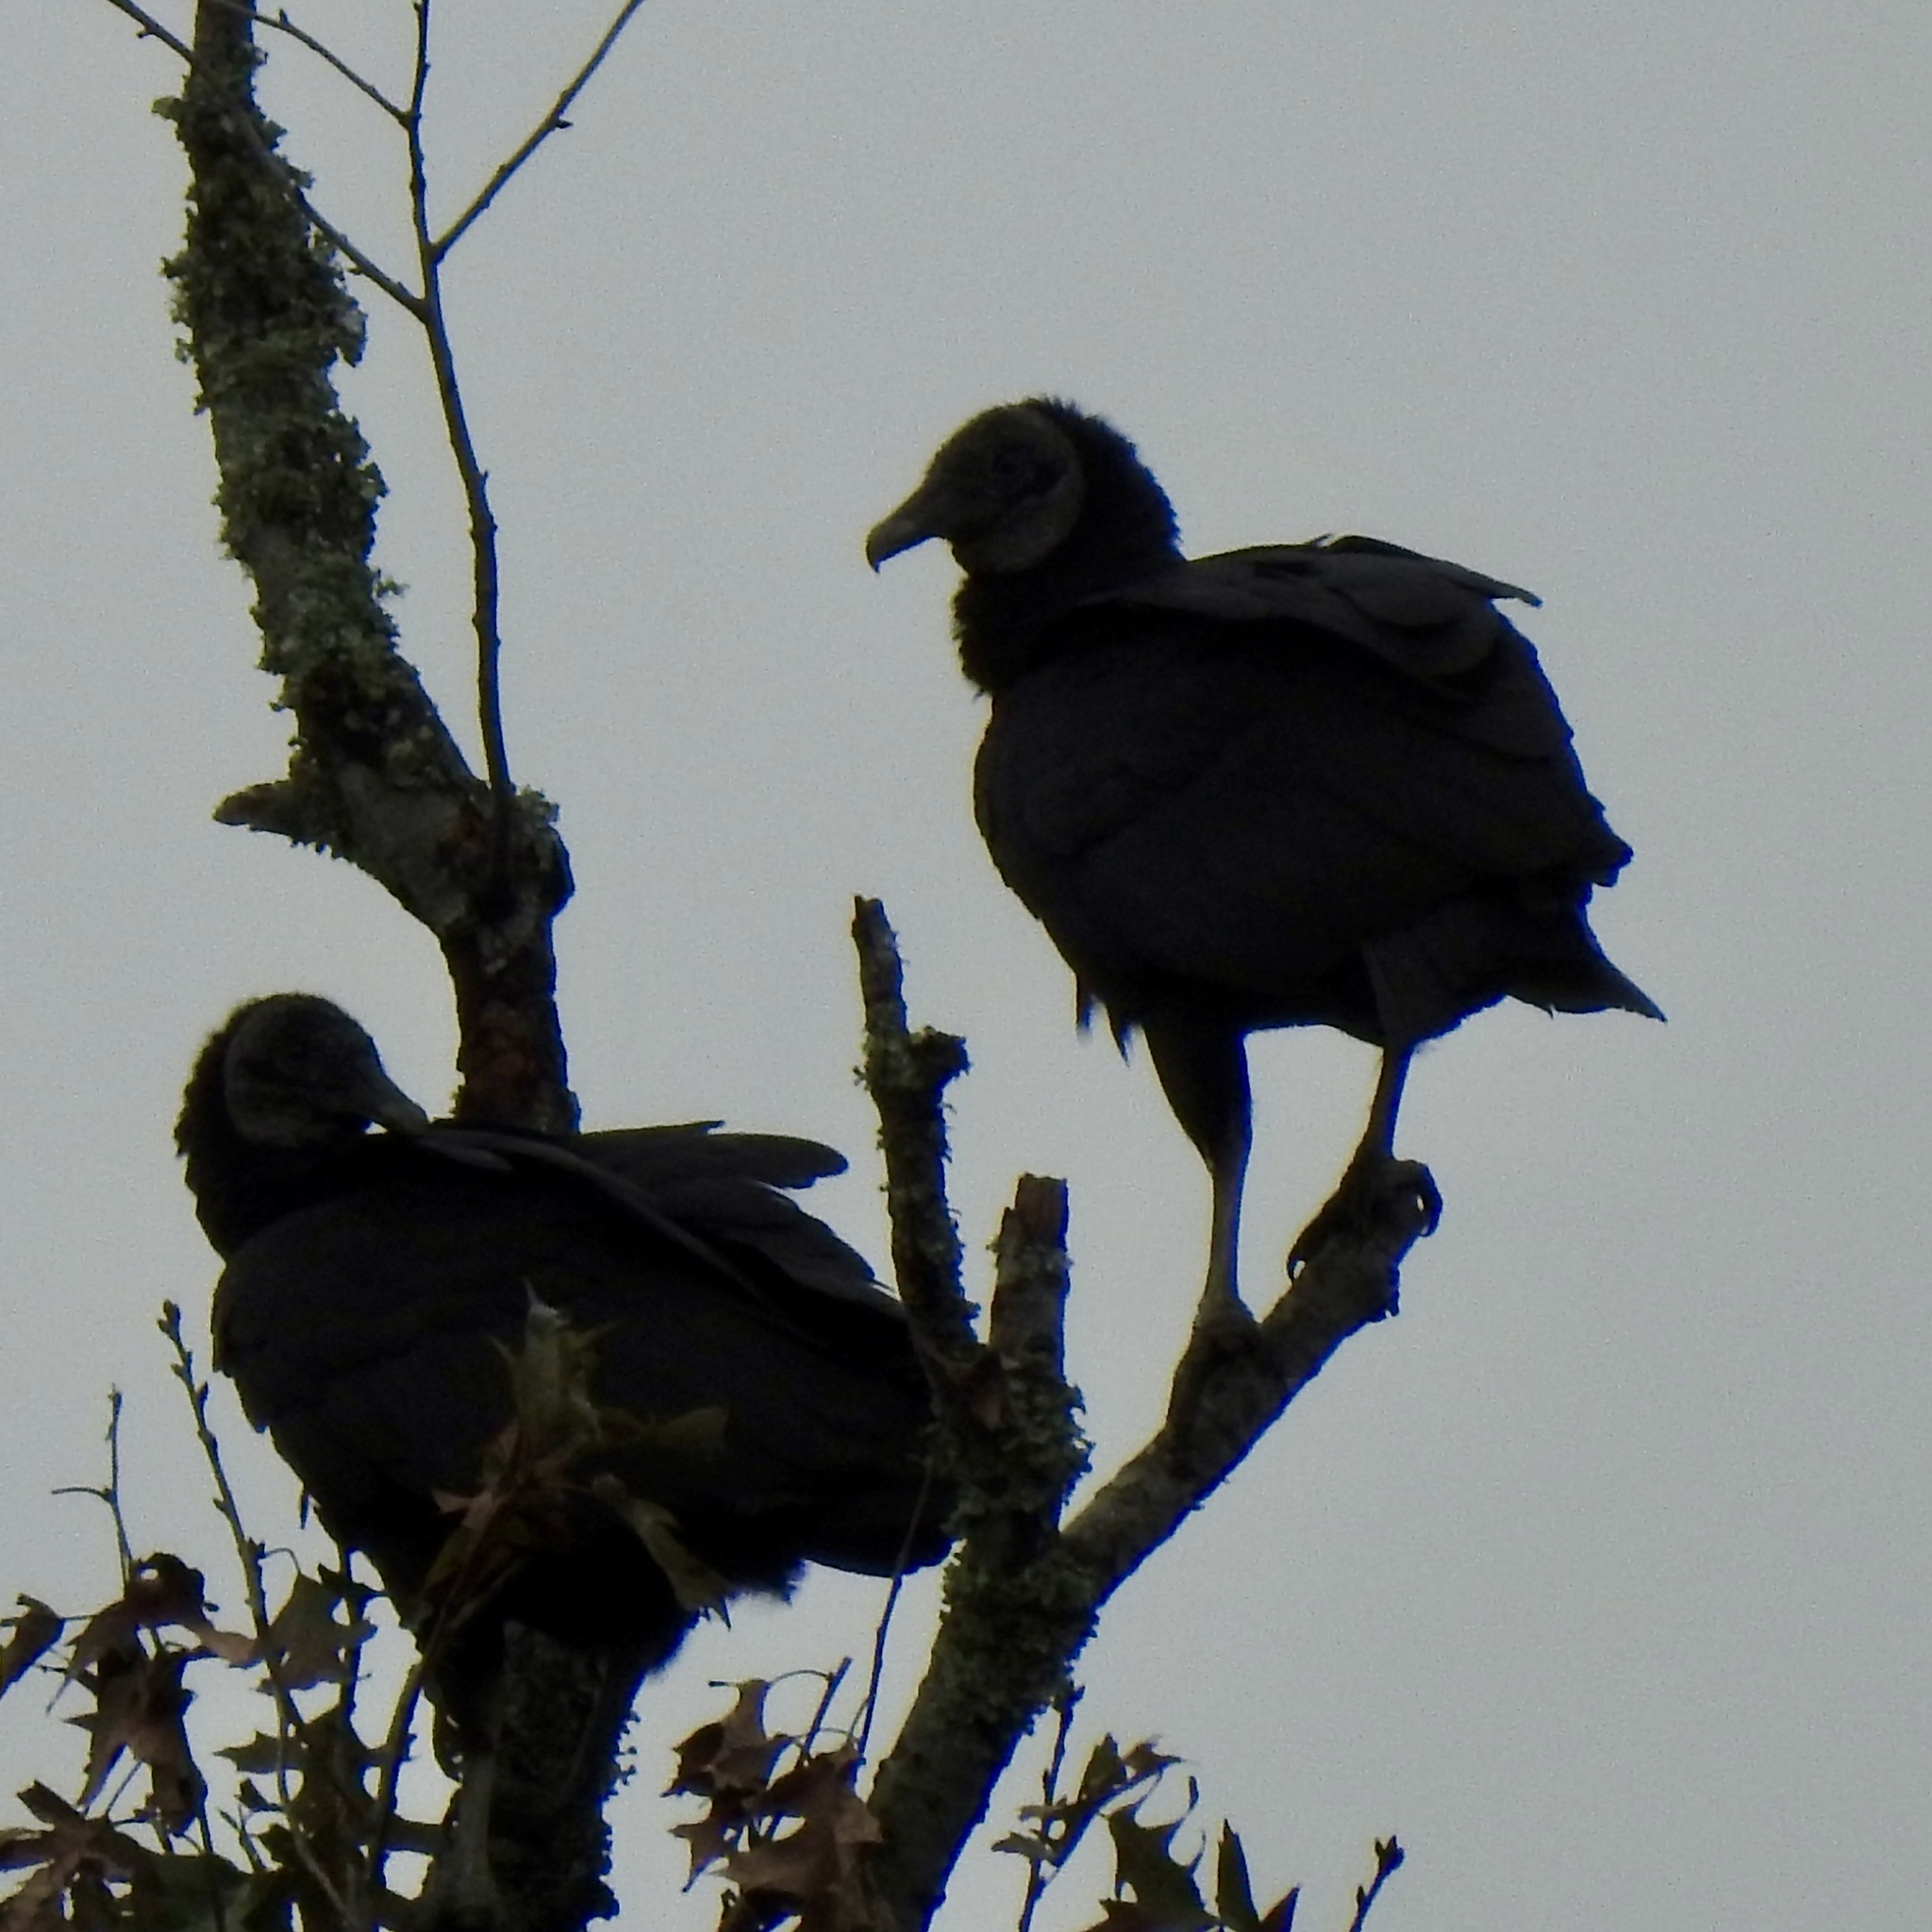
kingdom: Animalia
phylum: Chordata
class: Aves
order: Accipitriformes
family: Cathartidae
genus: Coragyps
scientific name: Coragyps atratus
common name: Black vulture
